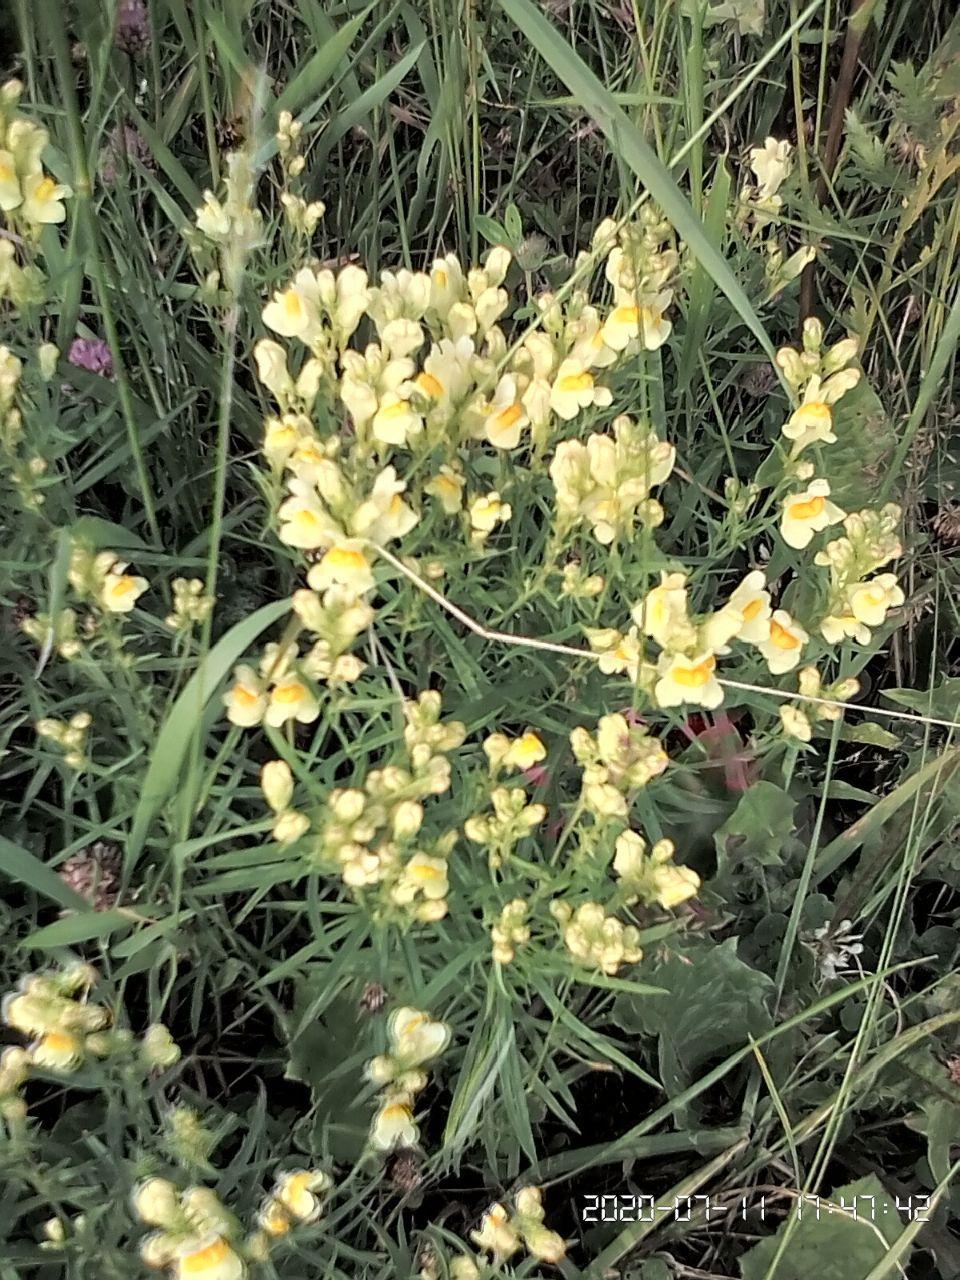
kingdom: Plantae
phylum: Tracheophyta
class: Magnoliopsida
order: Lamiales
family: Plantaginaceae
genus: Linaria
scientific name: Linaria vulgaris
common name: Butter and eggs
